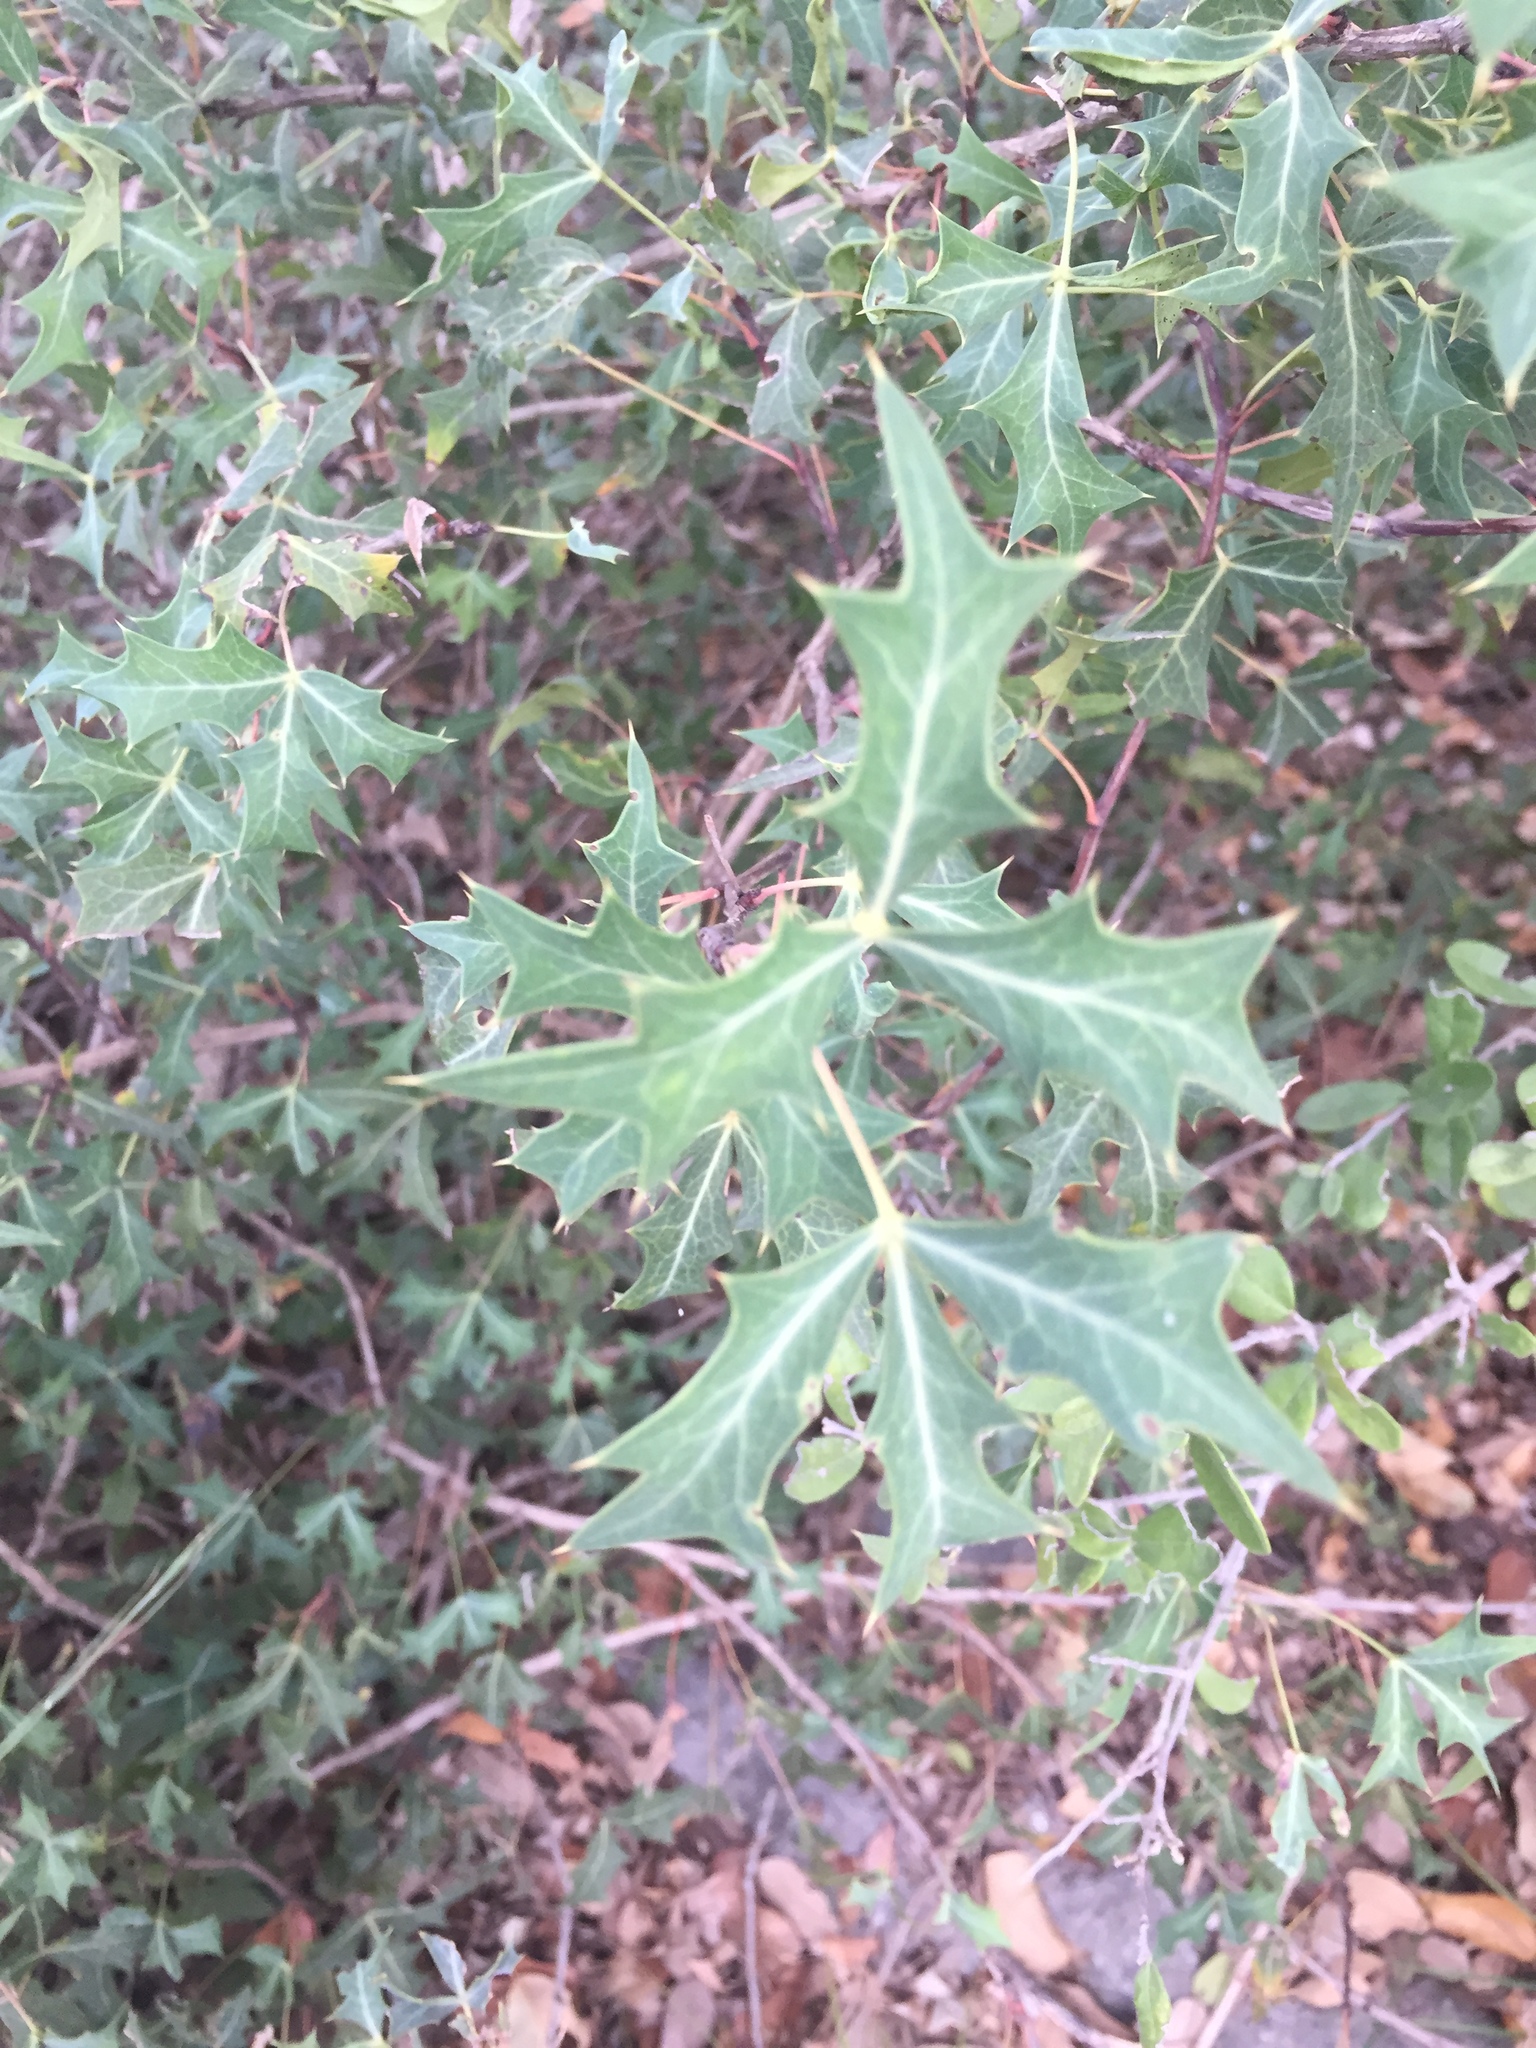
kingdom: Plantae
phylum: Tracheophyta
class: Magnoliopsida
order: Ranunculales
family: Berberidaceae
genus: Alloberberis
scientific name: Alloberberis trifoliolata
